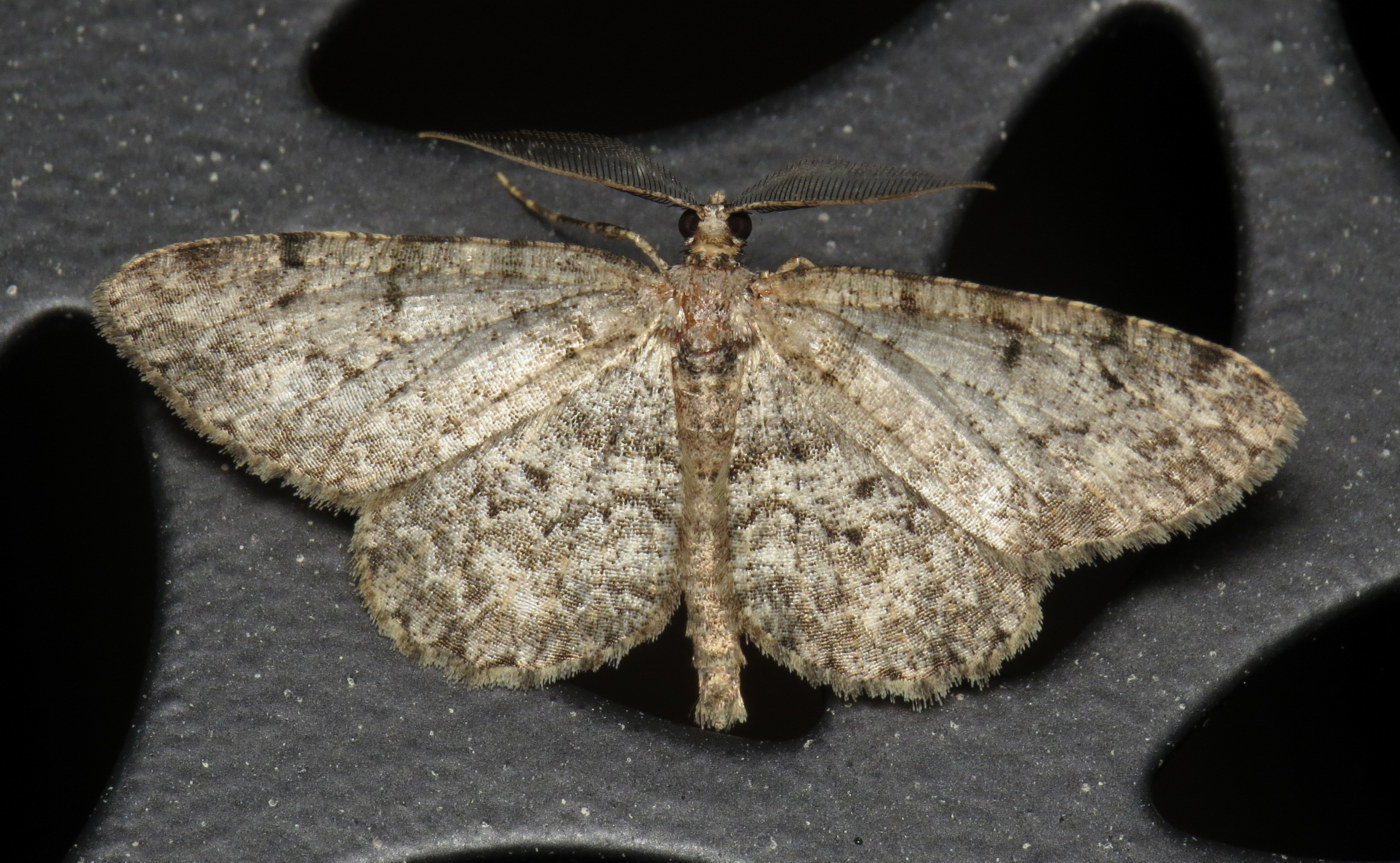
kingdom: Animalia
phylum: Arthropoda
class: Insecta
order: Lepidoptera
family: Geometridae
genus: Protoboarmia
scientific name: Protoboarmia porcelaria
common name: Porcelain gray
